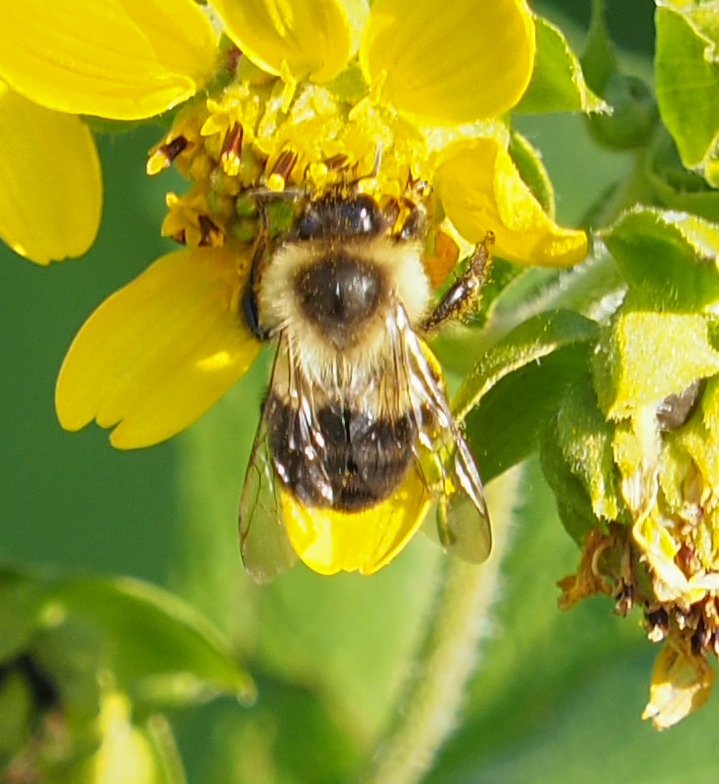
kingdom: Animalia
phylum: Arthropoda
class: Insecta
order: Hymenoptera
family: Apidae
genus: Bombus
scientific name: Bombus impatiens
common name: Common eastern bumble bee
